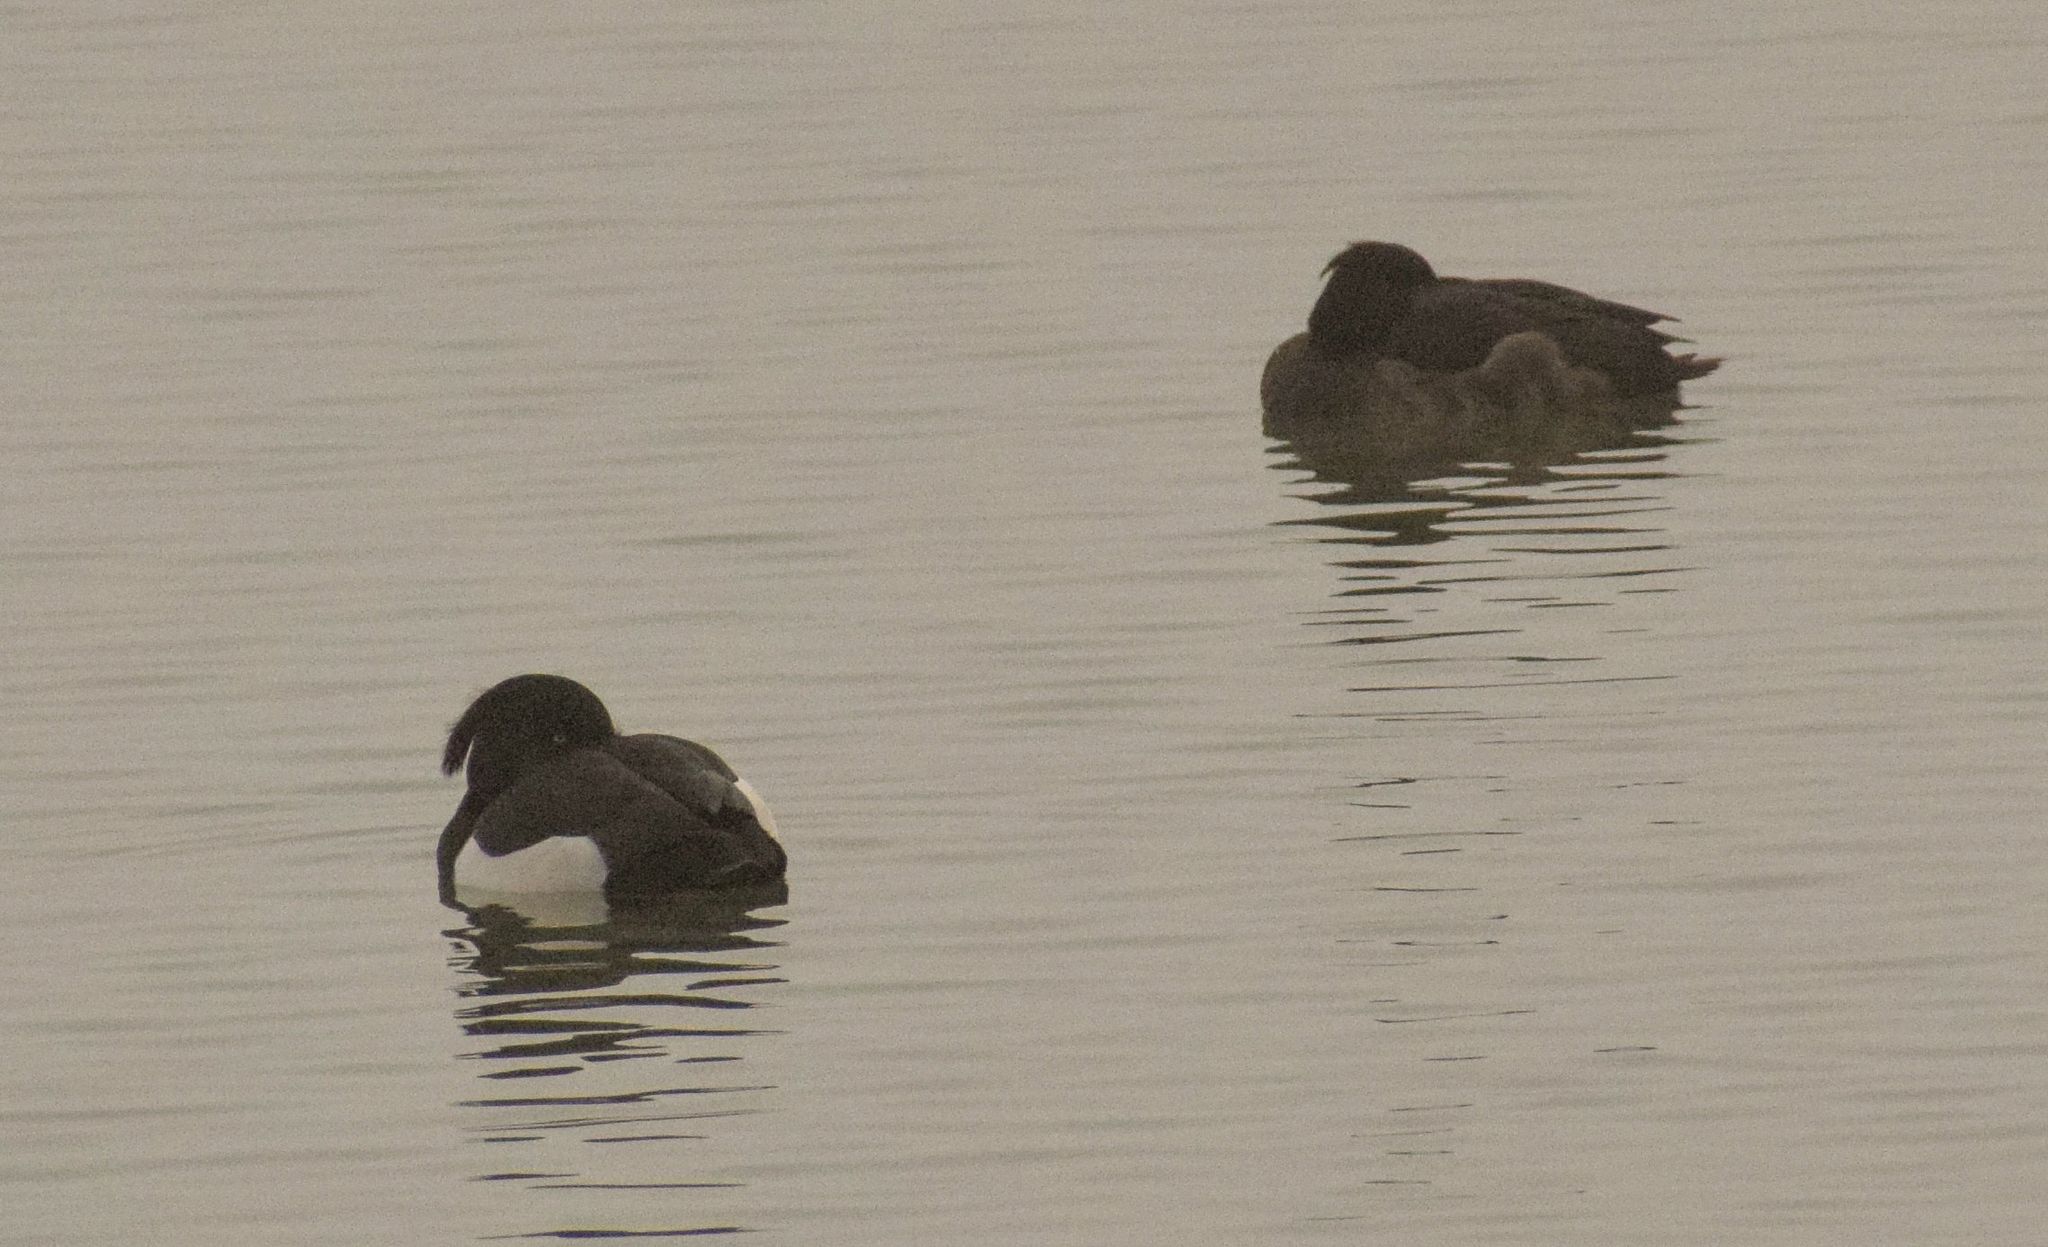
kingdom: Animalia
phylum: Chordata
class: Aves
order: Anseriformes
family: Anatidae
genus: Aythya
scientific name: Aythya fuligula
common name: Tufted duck
